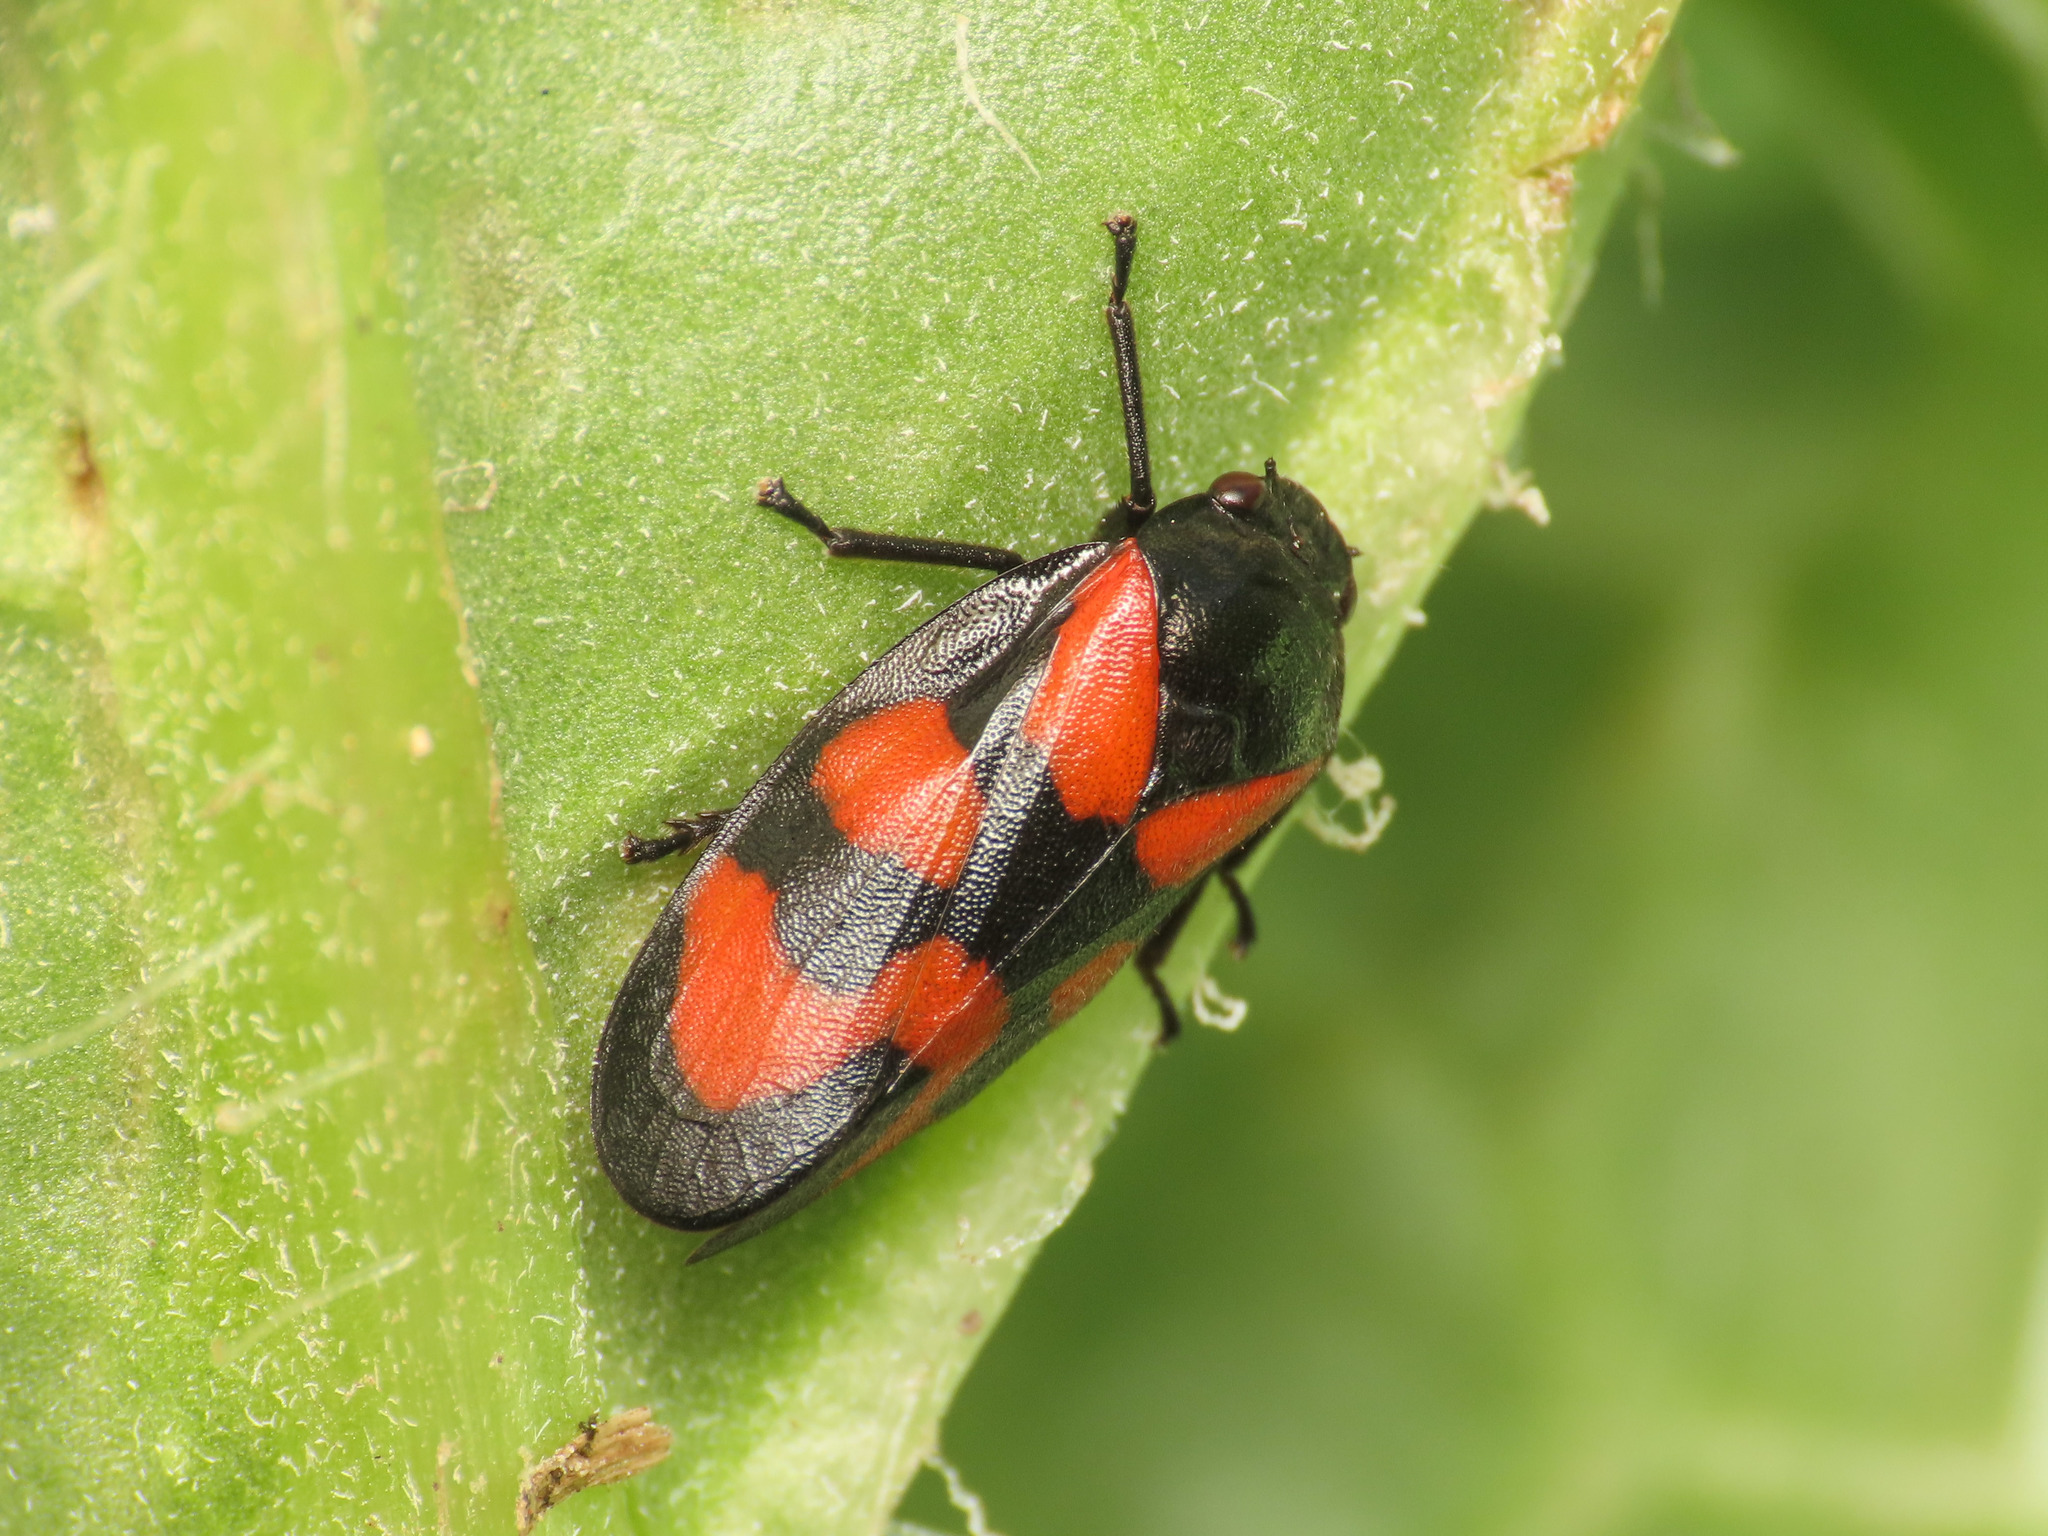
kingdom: Animalia
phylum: Arthropoda
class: Insecta
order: Hemiptera
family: Cercopidae
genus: Cercopis
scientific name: Cercopis vulnerata
